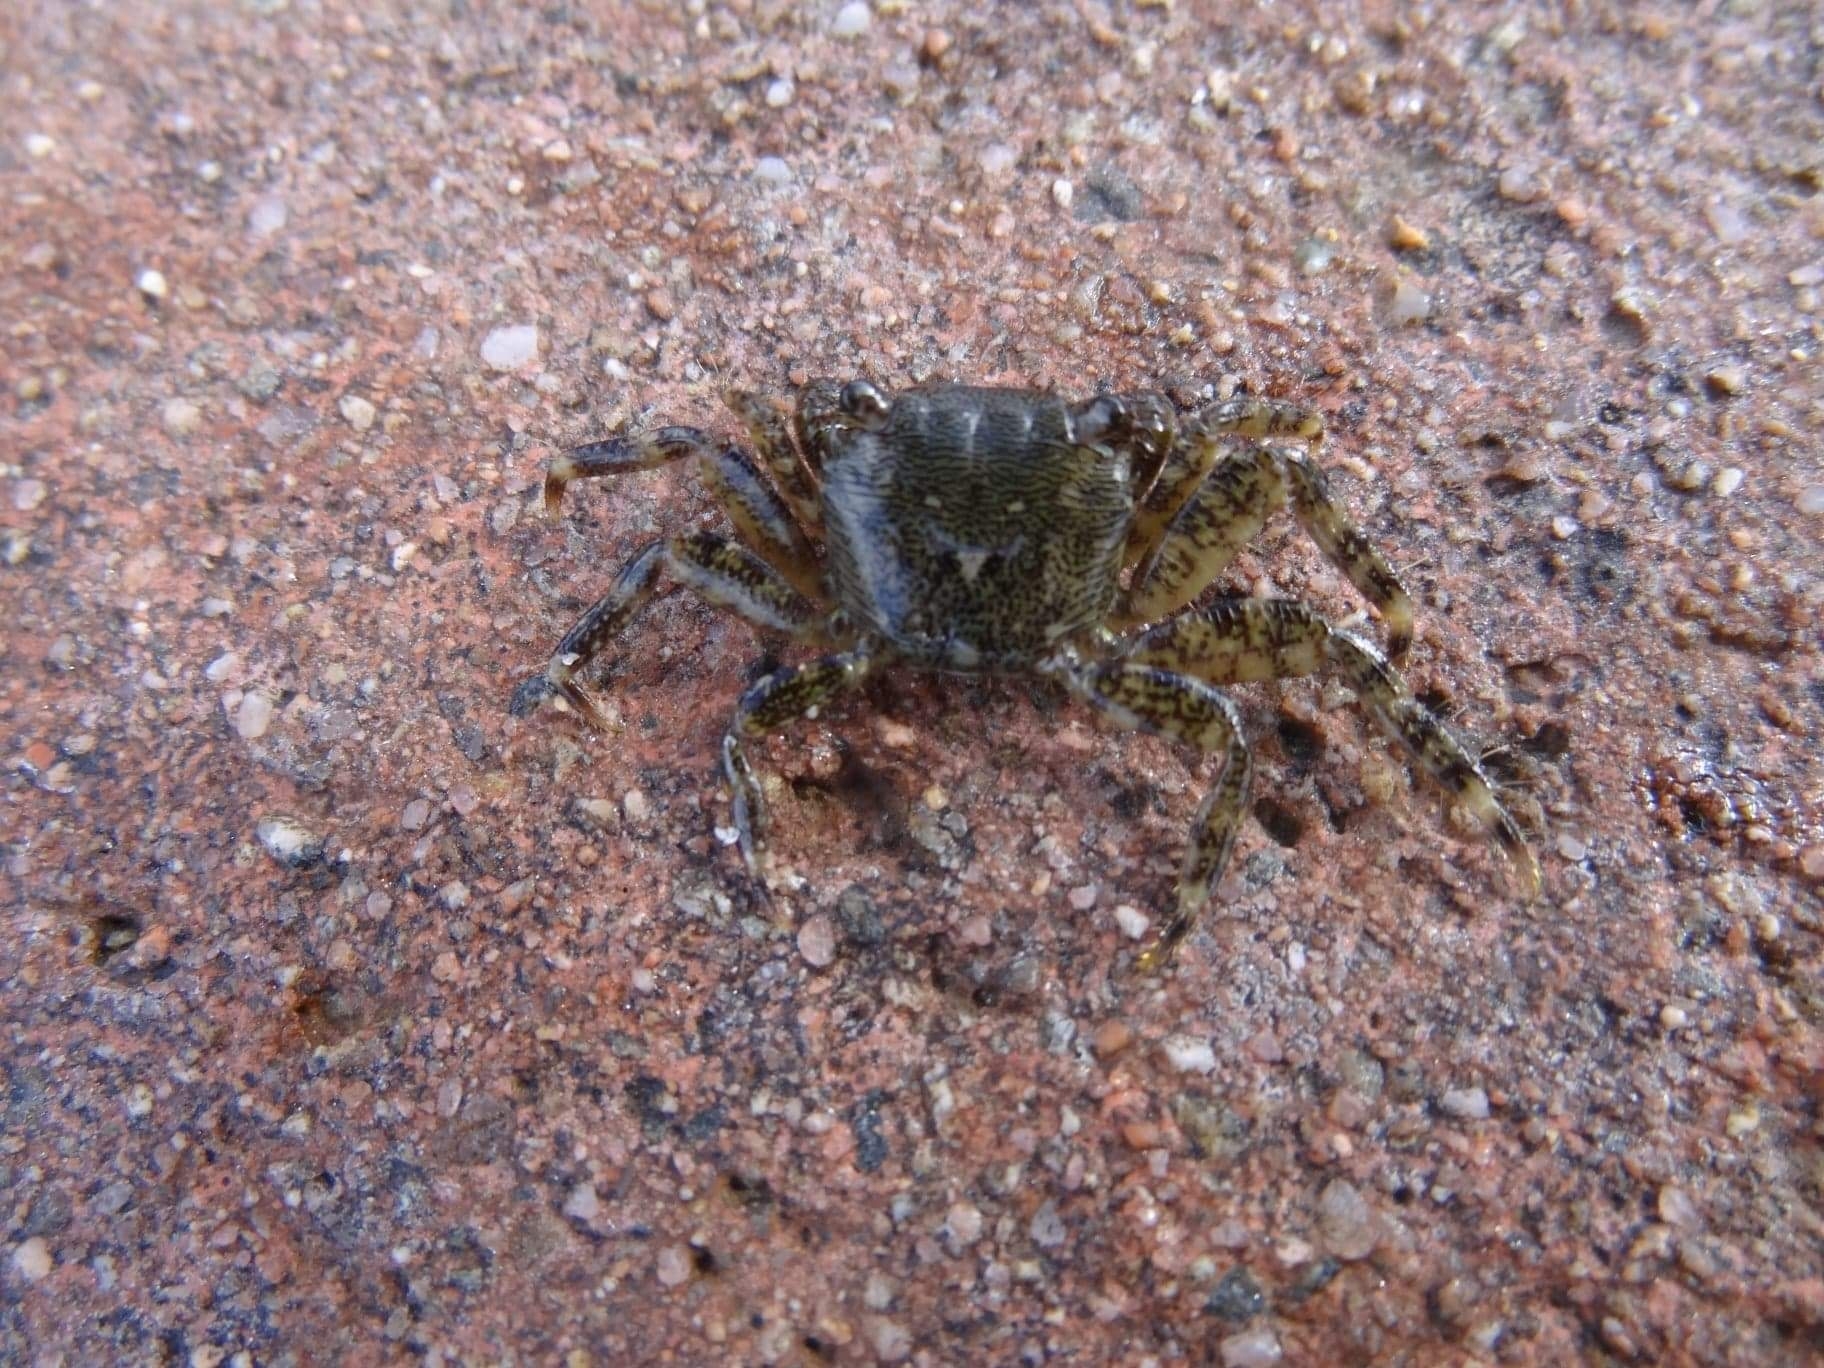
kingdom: Animalia
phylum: Arthropoda
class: Malacostraca
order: Decapoda
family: Grapsidae
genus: Pachygrapsus
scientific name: Pachygrapsus marmoratus
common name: Marbled rock crab
